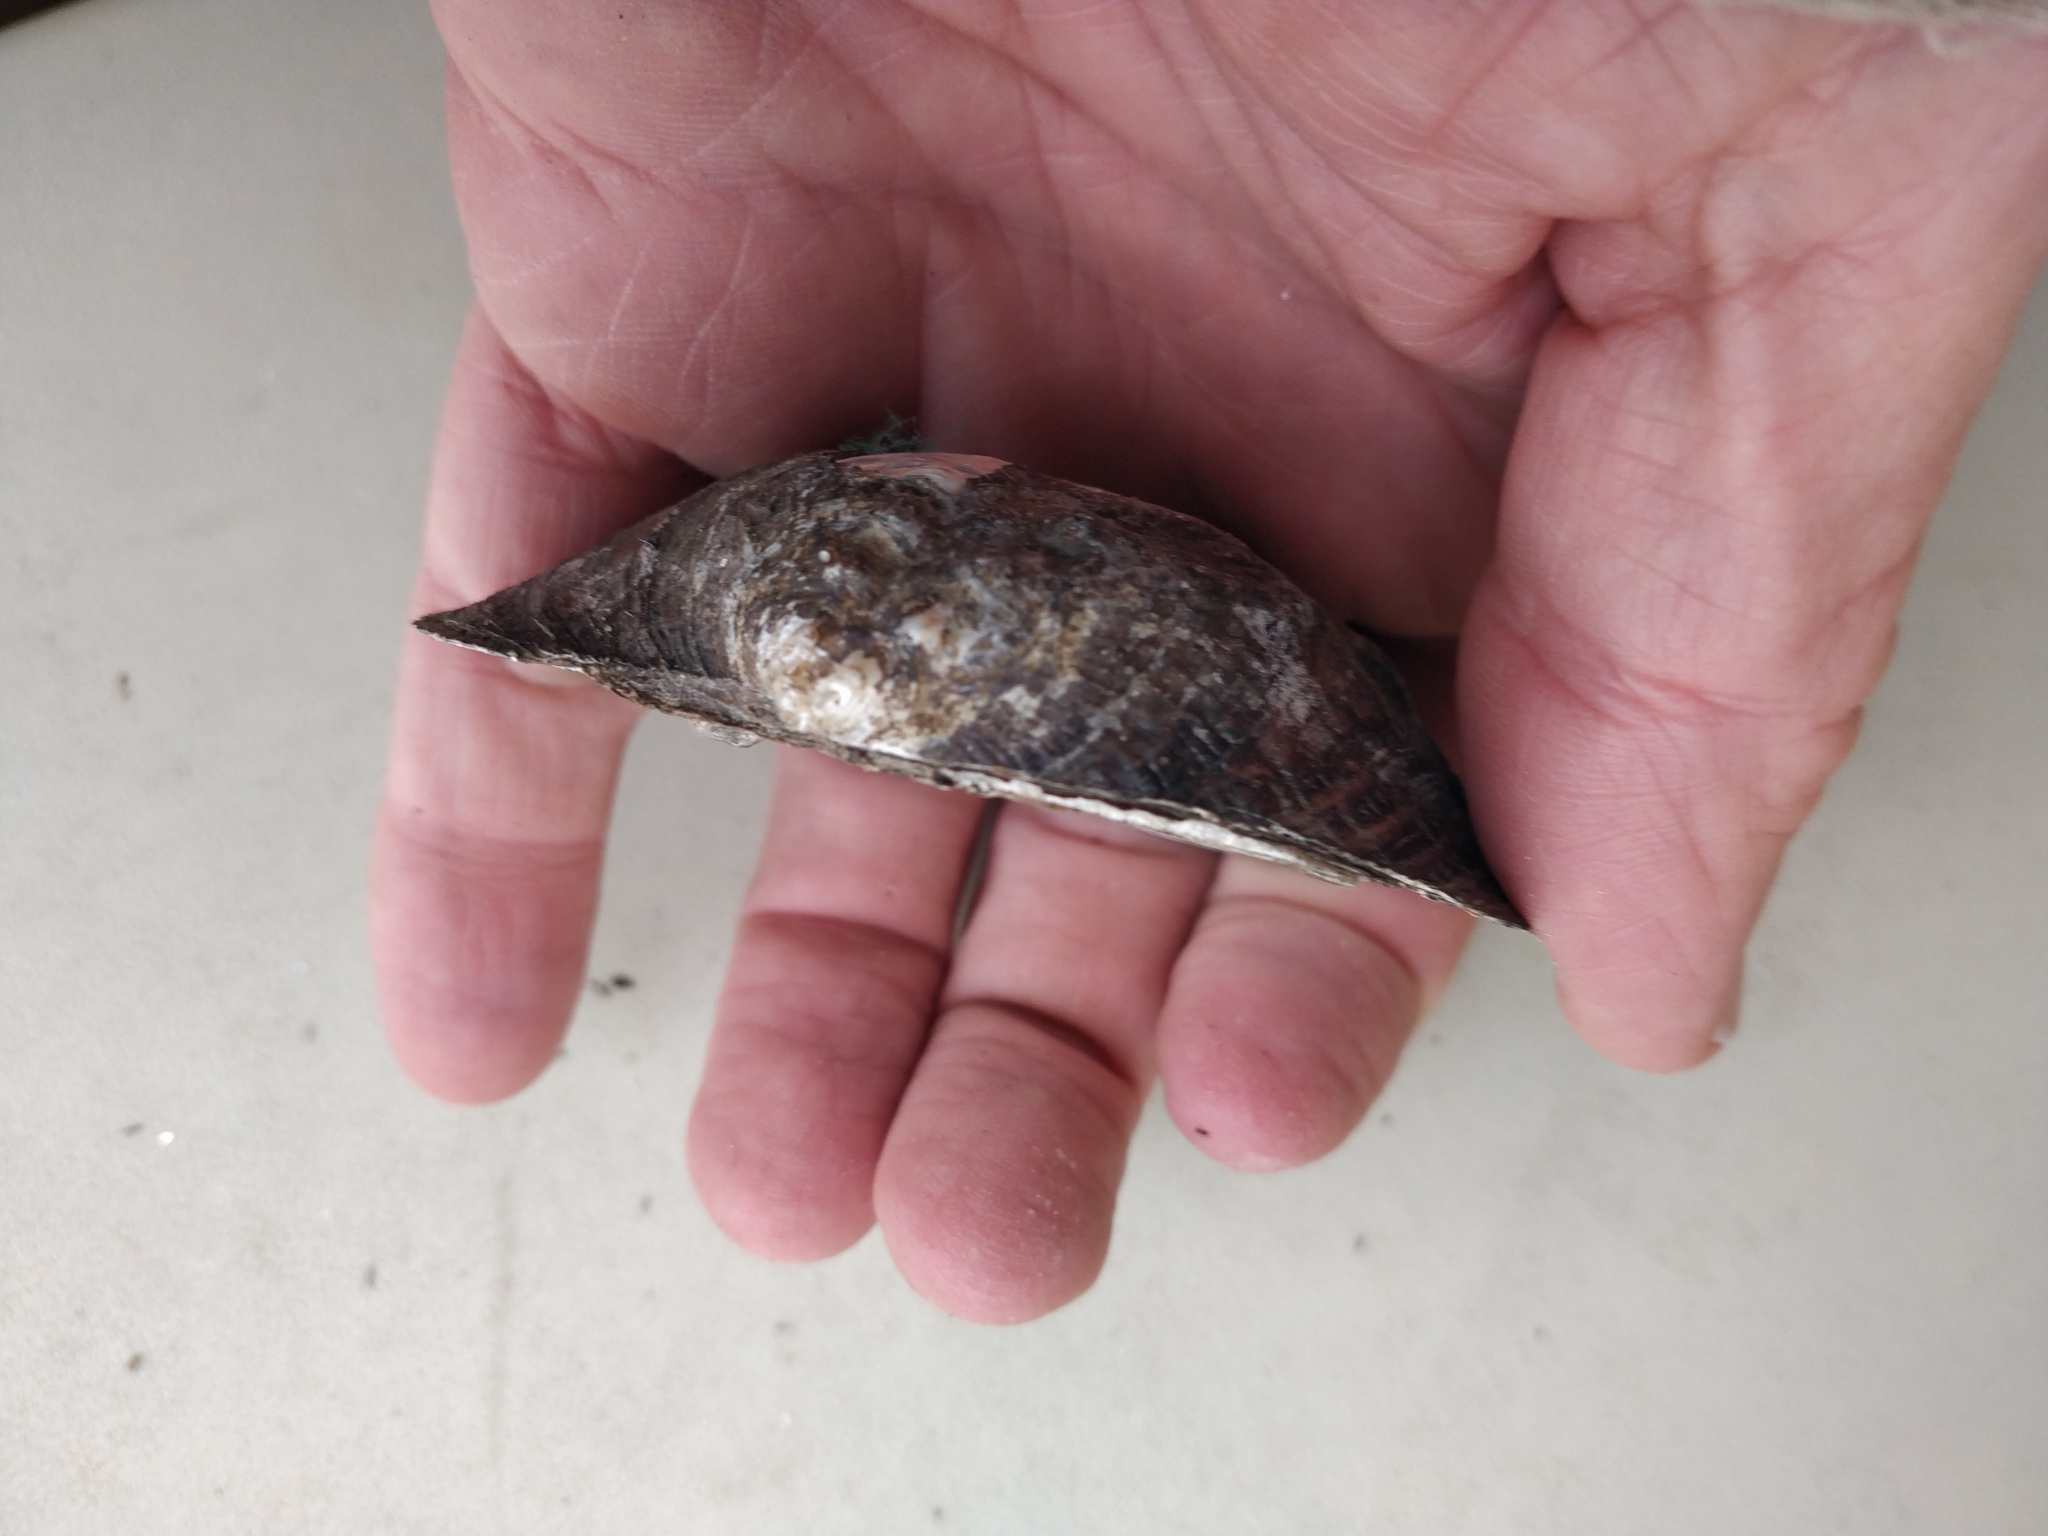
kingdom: Animalia
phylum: Mollusca
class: Bivalvia
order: Unionida
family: Unionidae
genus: Arcidens
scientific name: Arcidens confragosus
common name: Rock pocketbook
